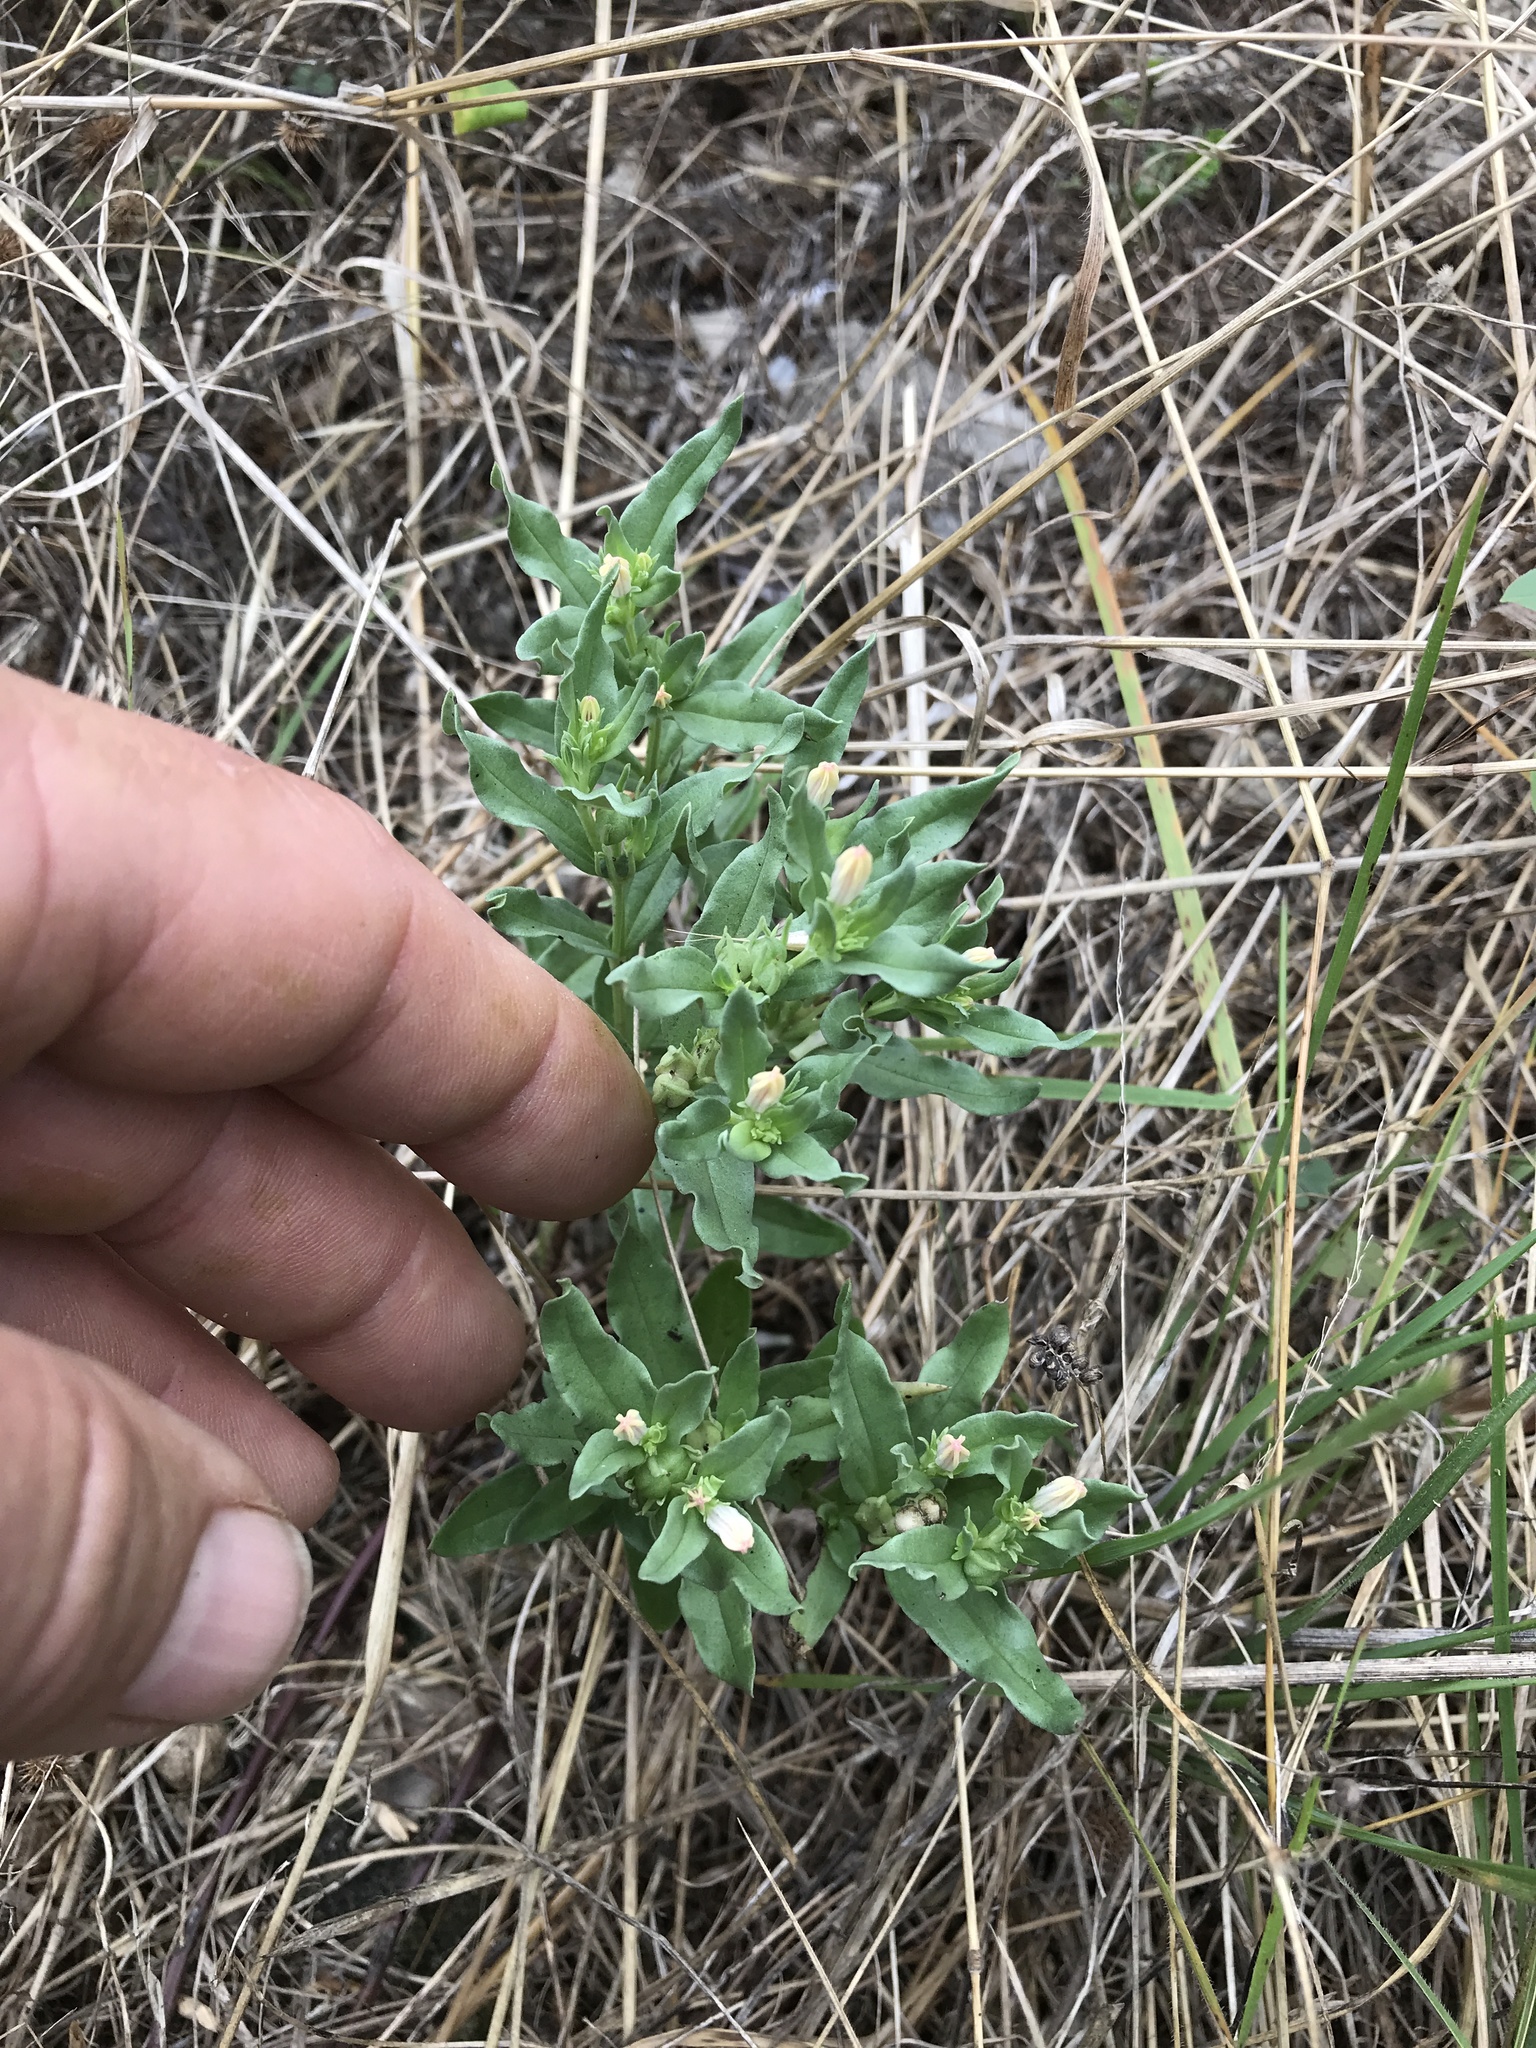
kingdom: Plantae
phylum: Tracheophyta
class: Magnoliopsida
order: Gentianales
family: Loganiaceae
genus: Spigelia
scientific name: Spigelia hedyotidea
